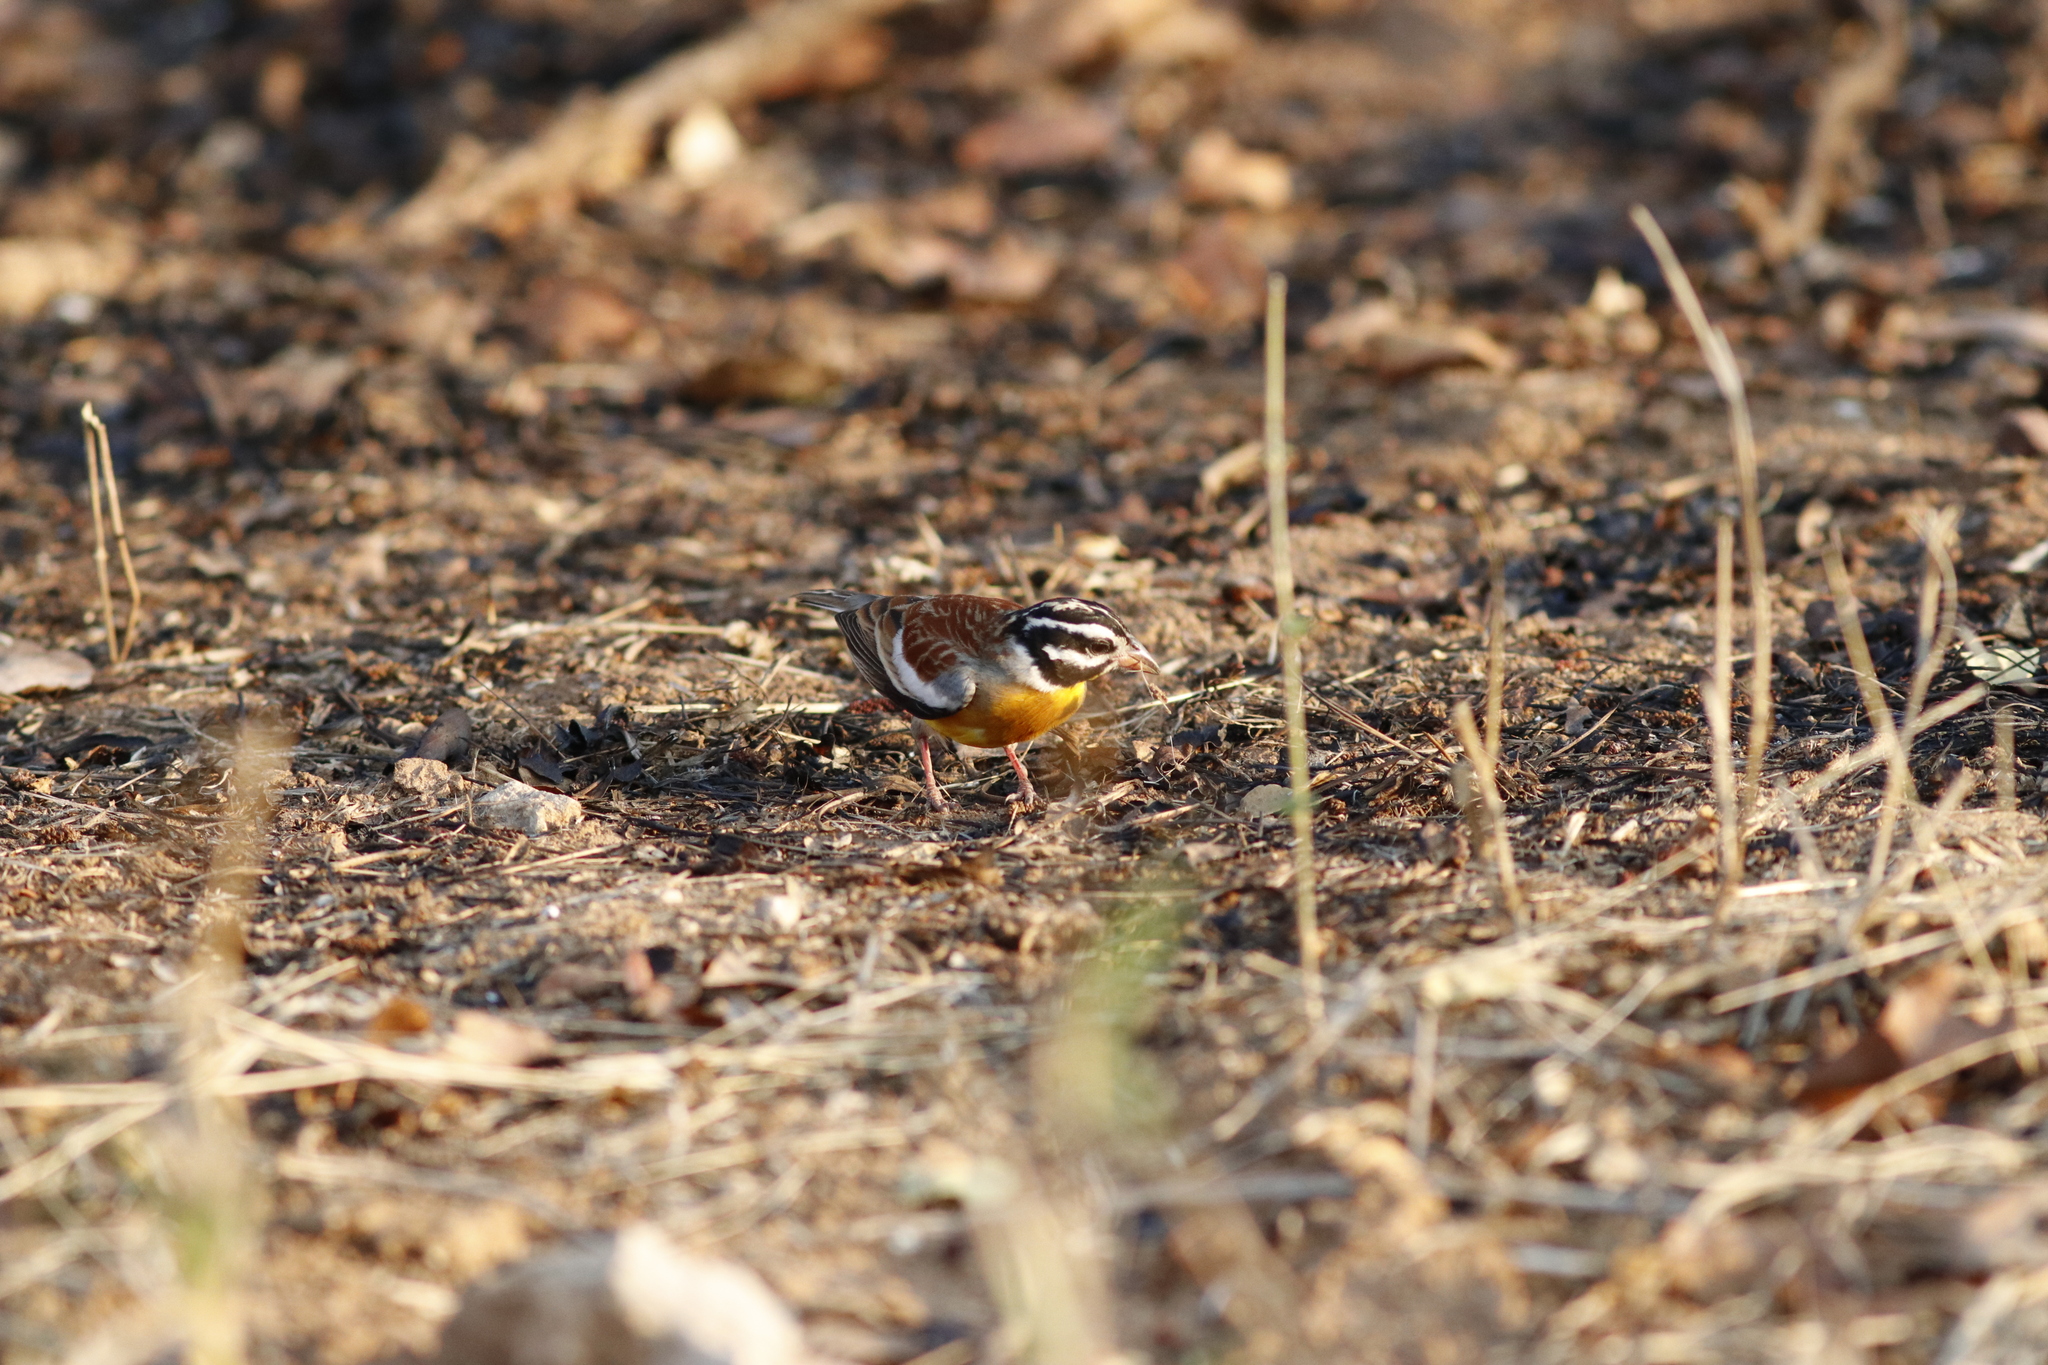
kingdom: Animalia
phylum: Chordata
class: Aves
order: Passeriformes
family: Emberizidae
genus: Emberiza
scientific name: Emberiza flaviventris
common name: Golden-breasted bunting
